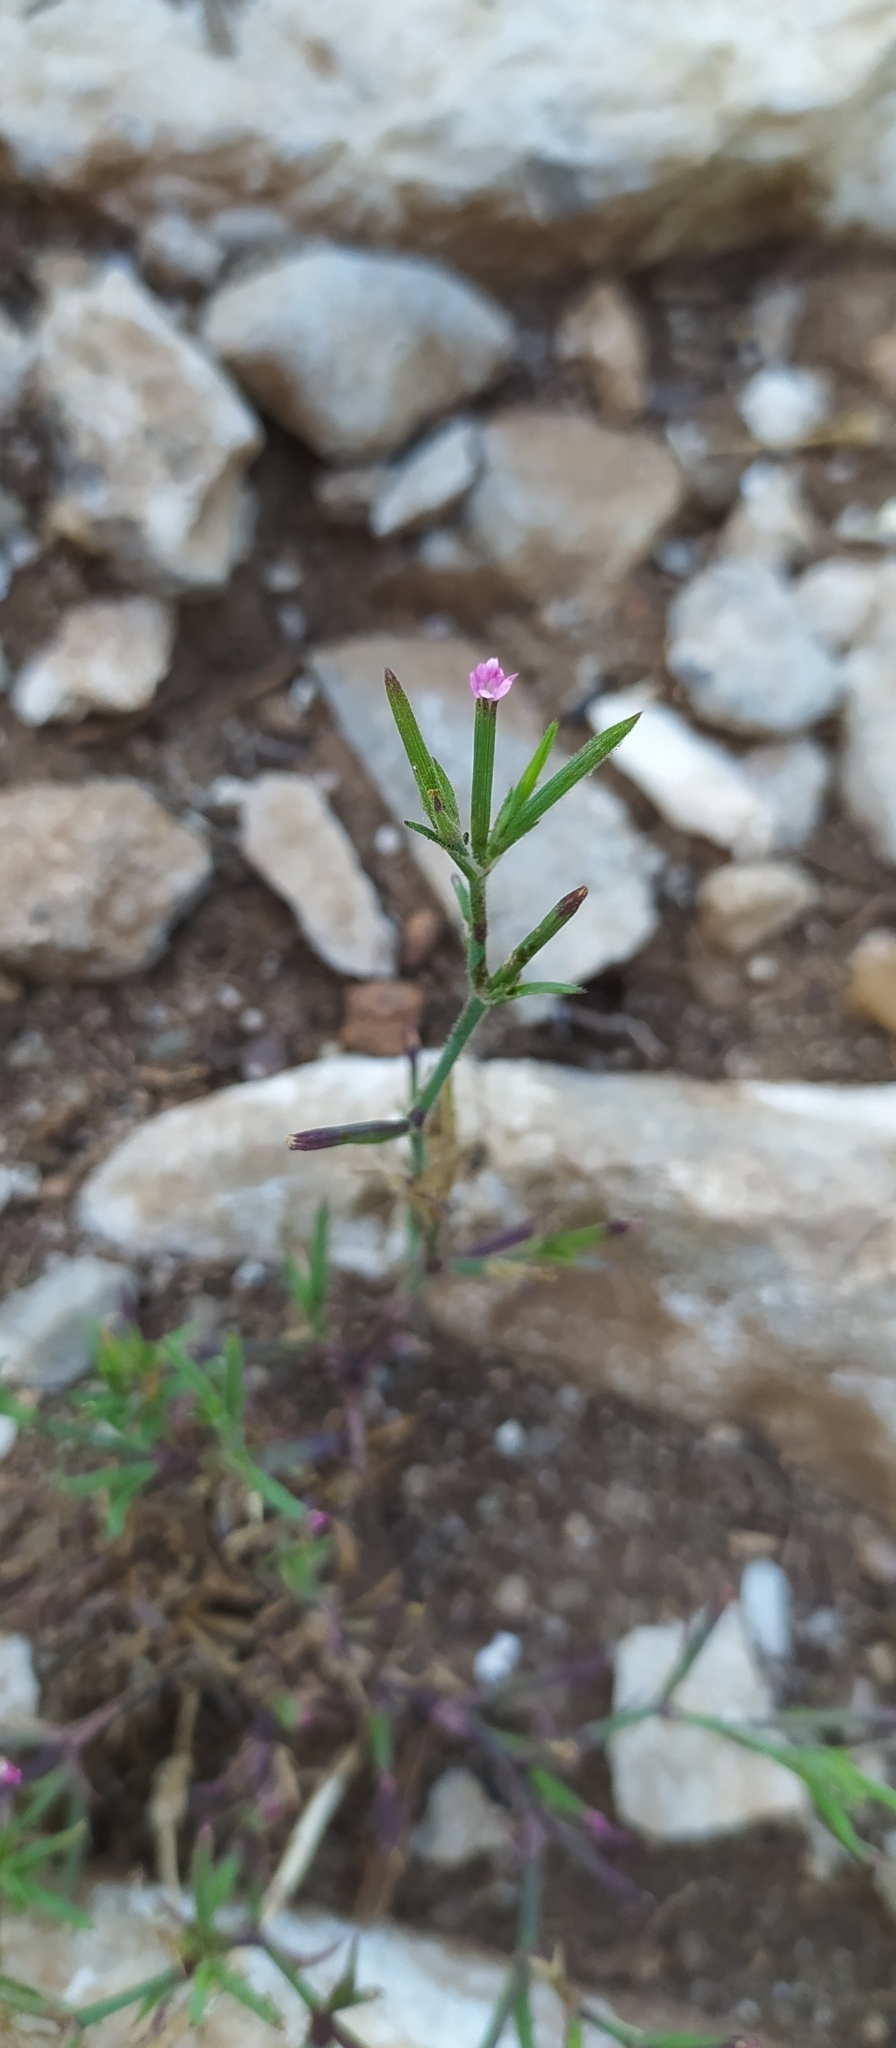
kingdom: Plantae
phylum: Tracheophyta
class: Magnoliopsida
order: Caryophyllales
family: Caryophyllaceae
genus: Dianthus
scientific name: Dianthus nudiflorus
